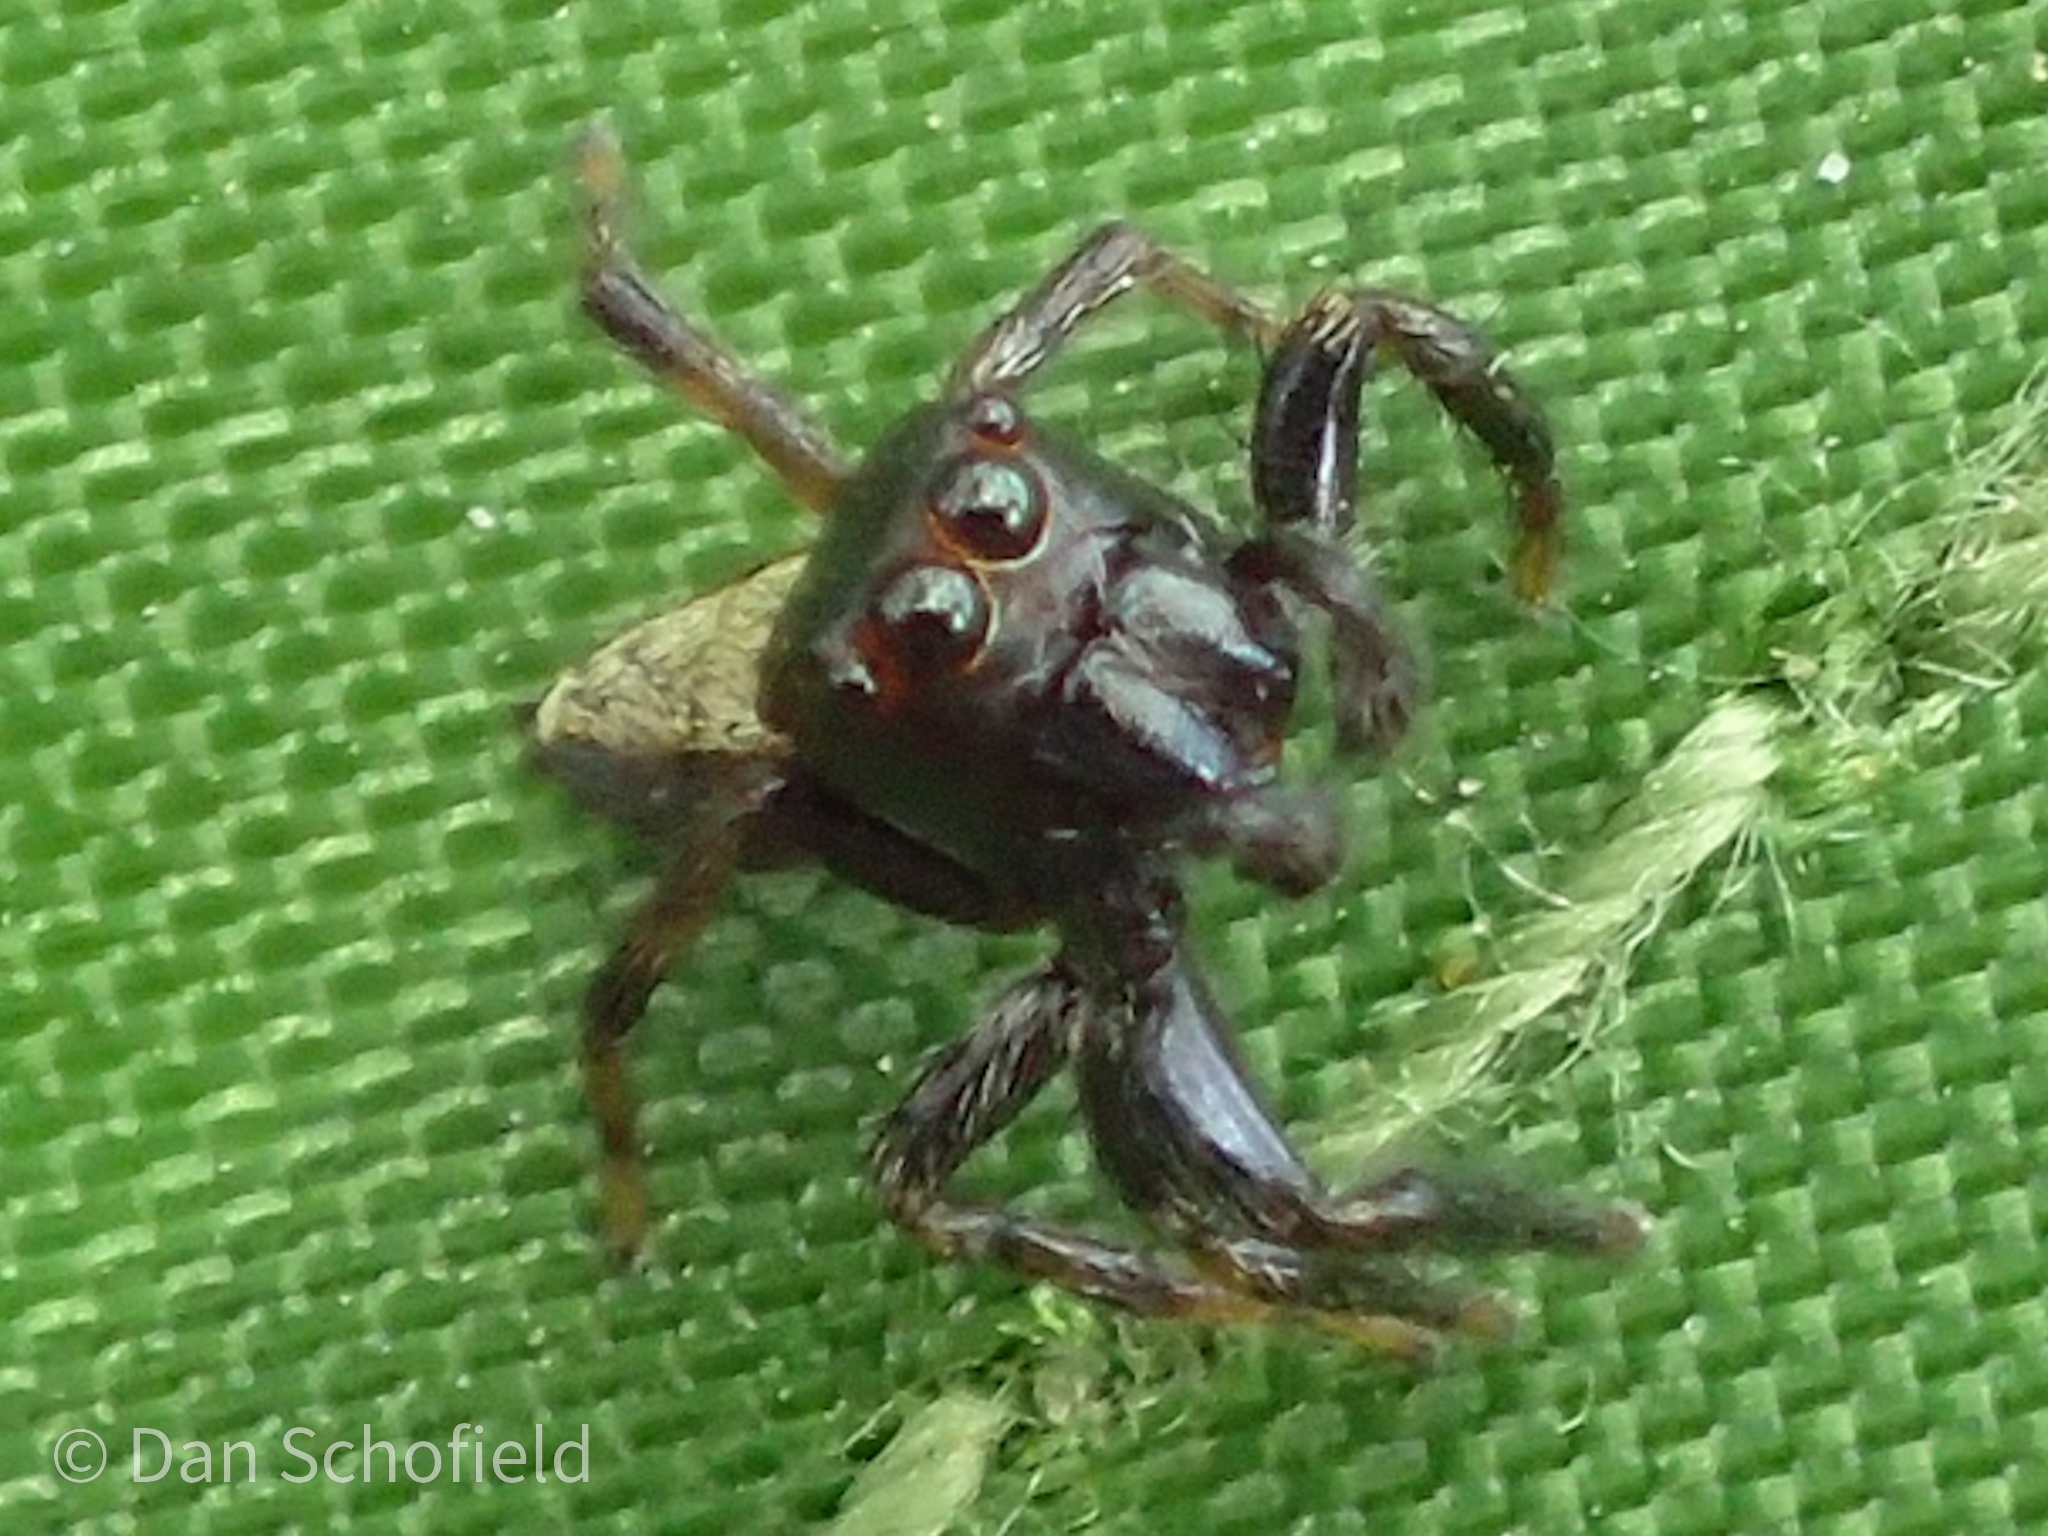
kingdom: Animalia
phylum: Arthropoda
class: Arachnida
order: Araneae
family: Salticidae
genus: Ptocasius
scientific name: Ptocasius strupifer
